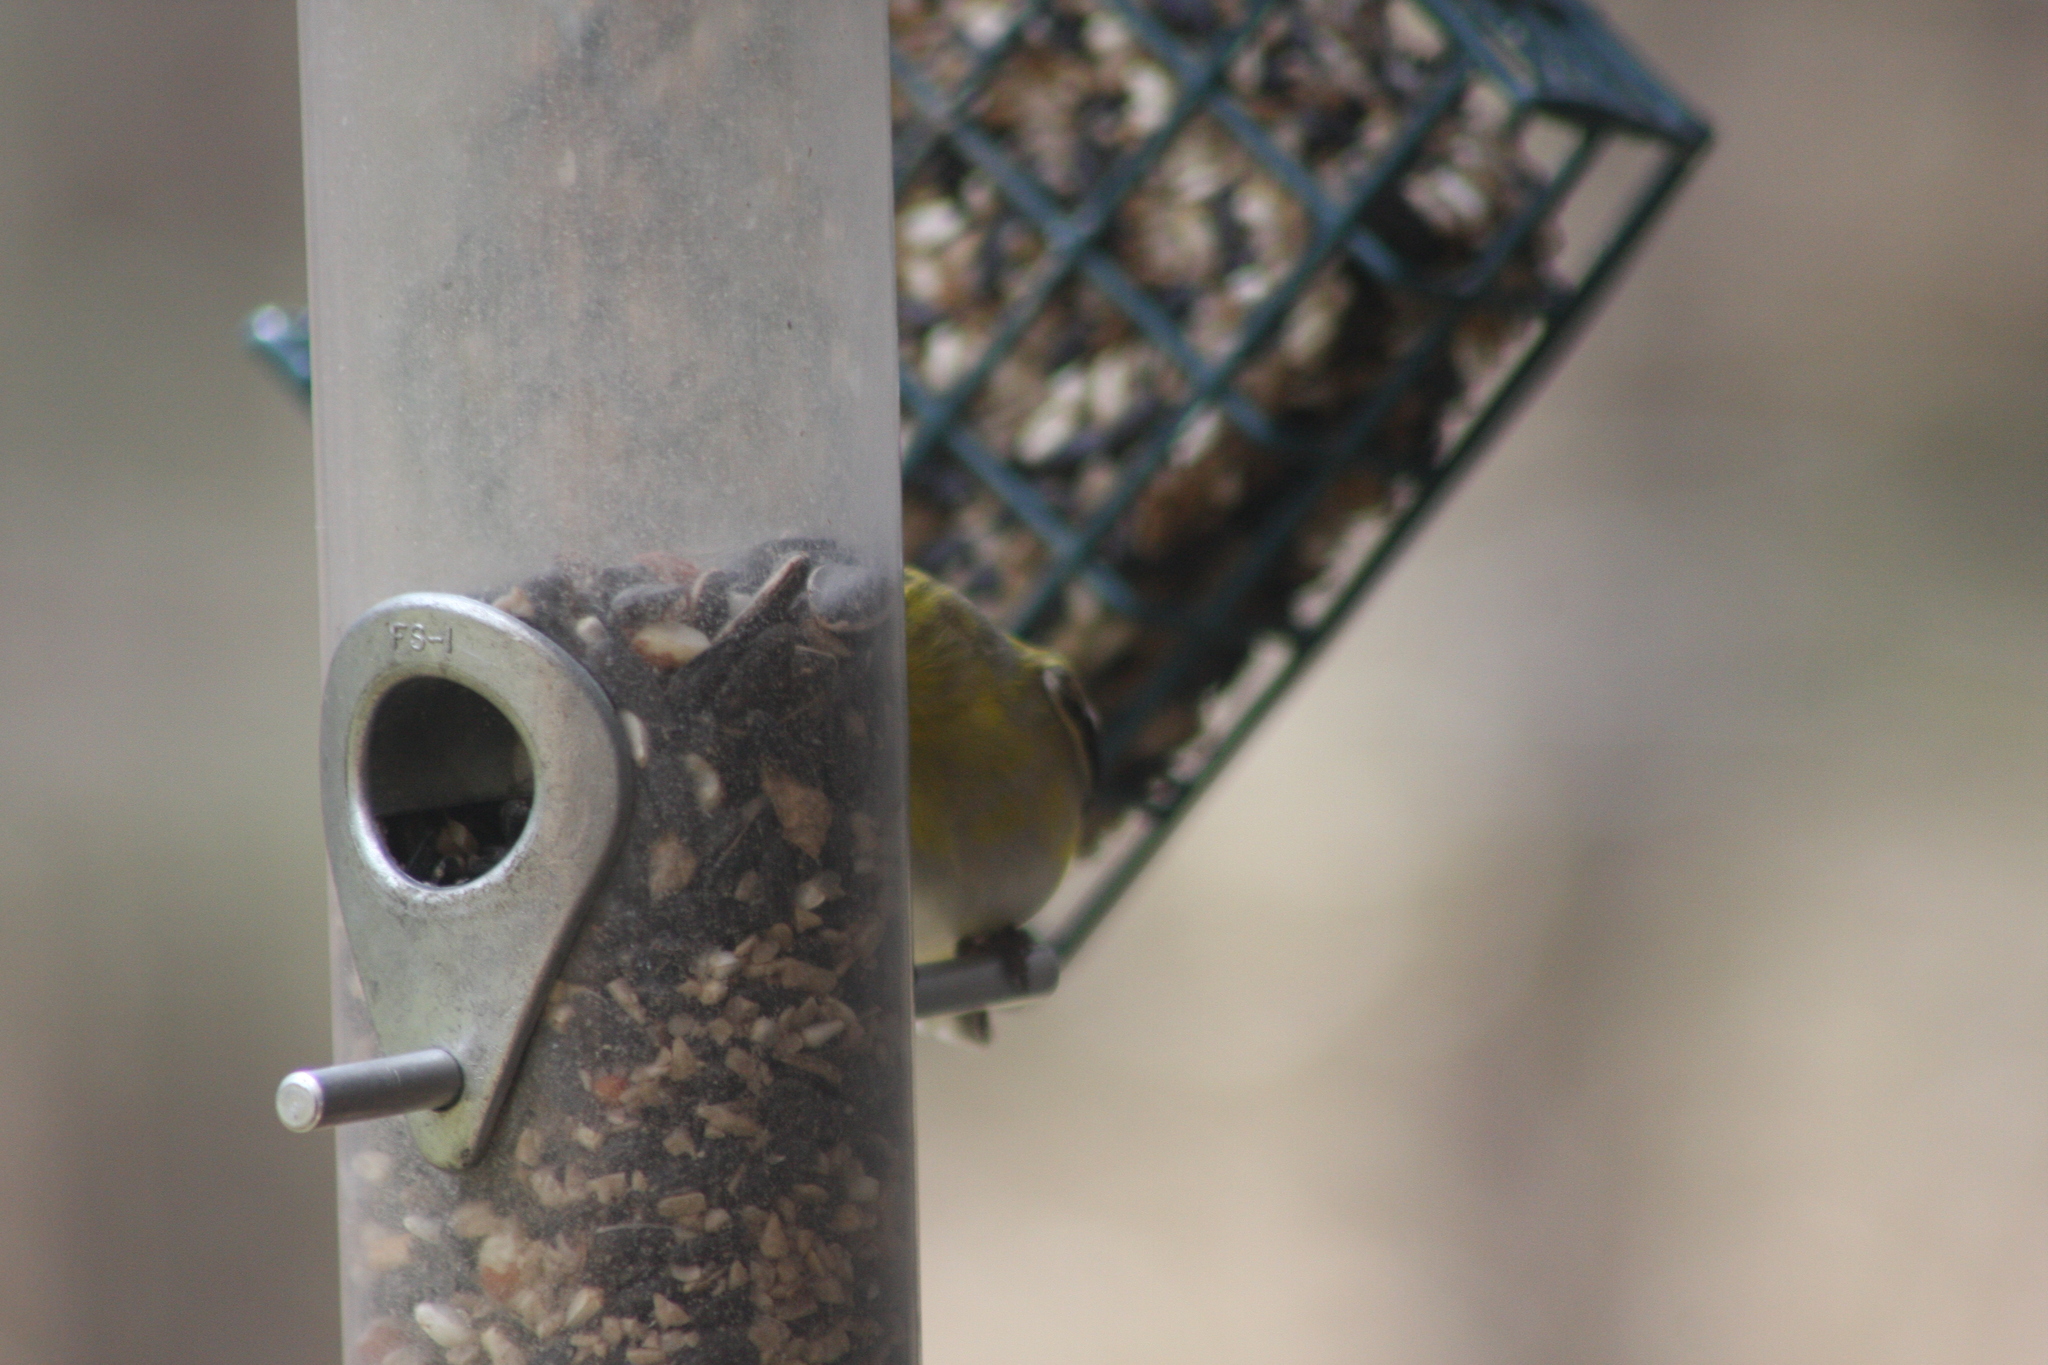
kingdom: Animalia
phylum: Chordata
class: Aves
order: Passeriformes
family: Fringillidae
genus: Spinus
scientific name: Spinus tristis
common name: American goldfinch
